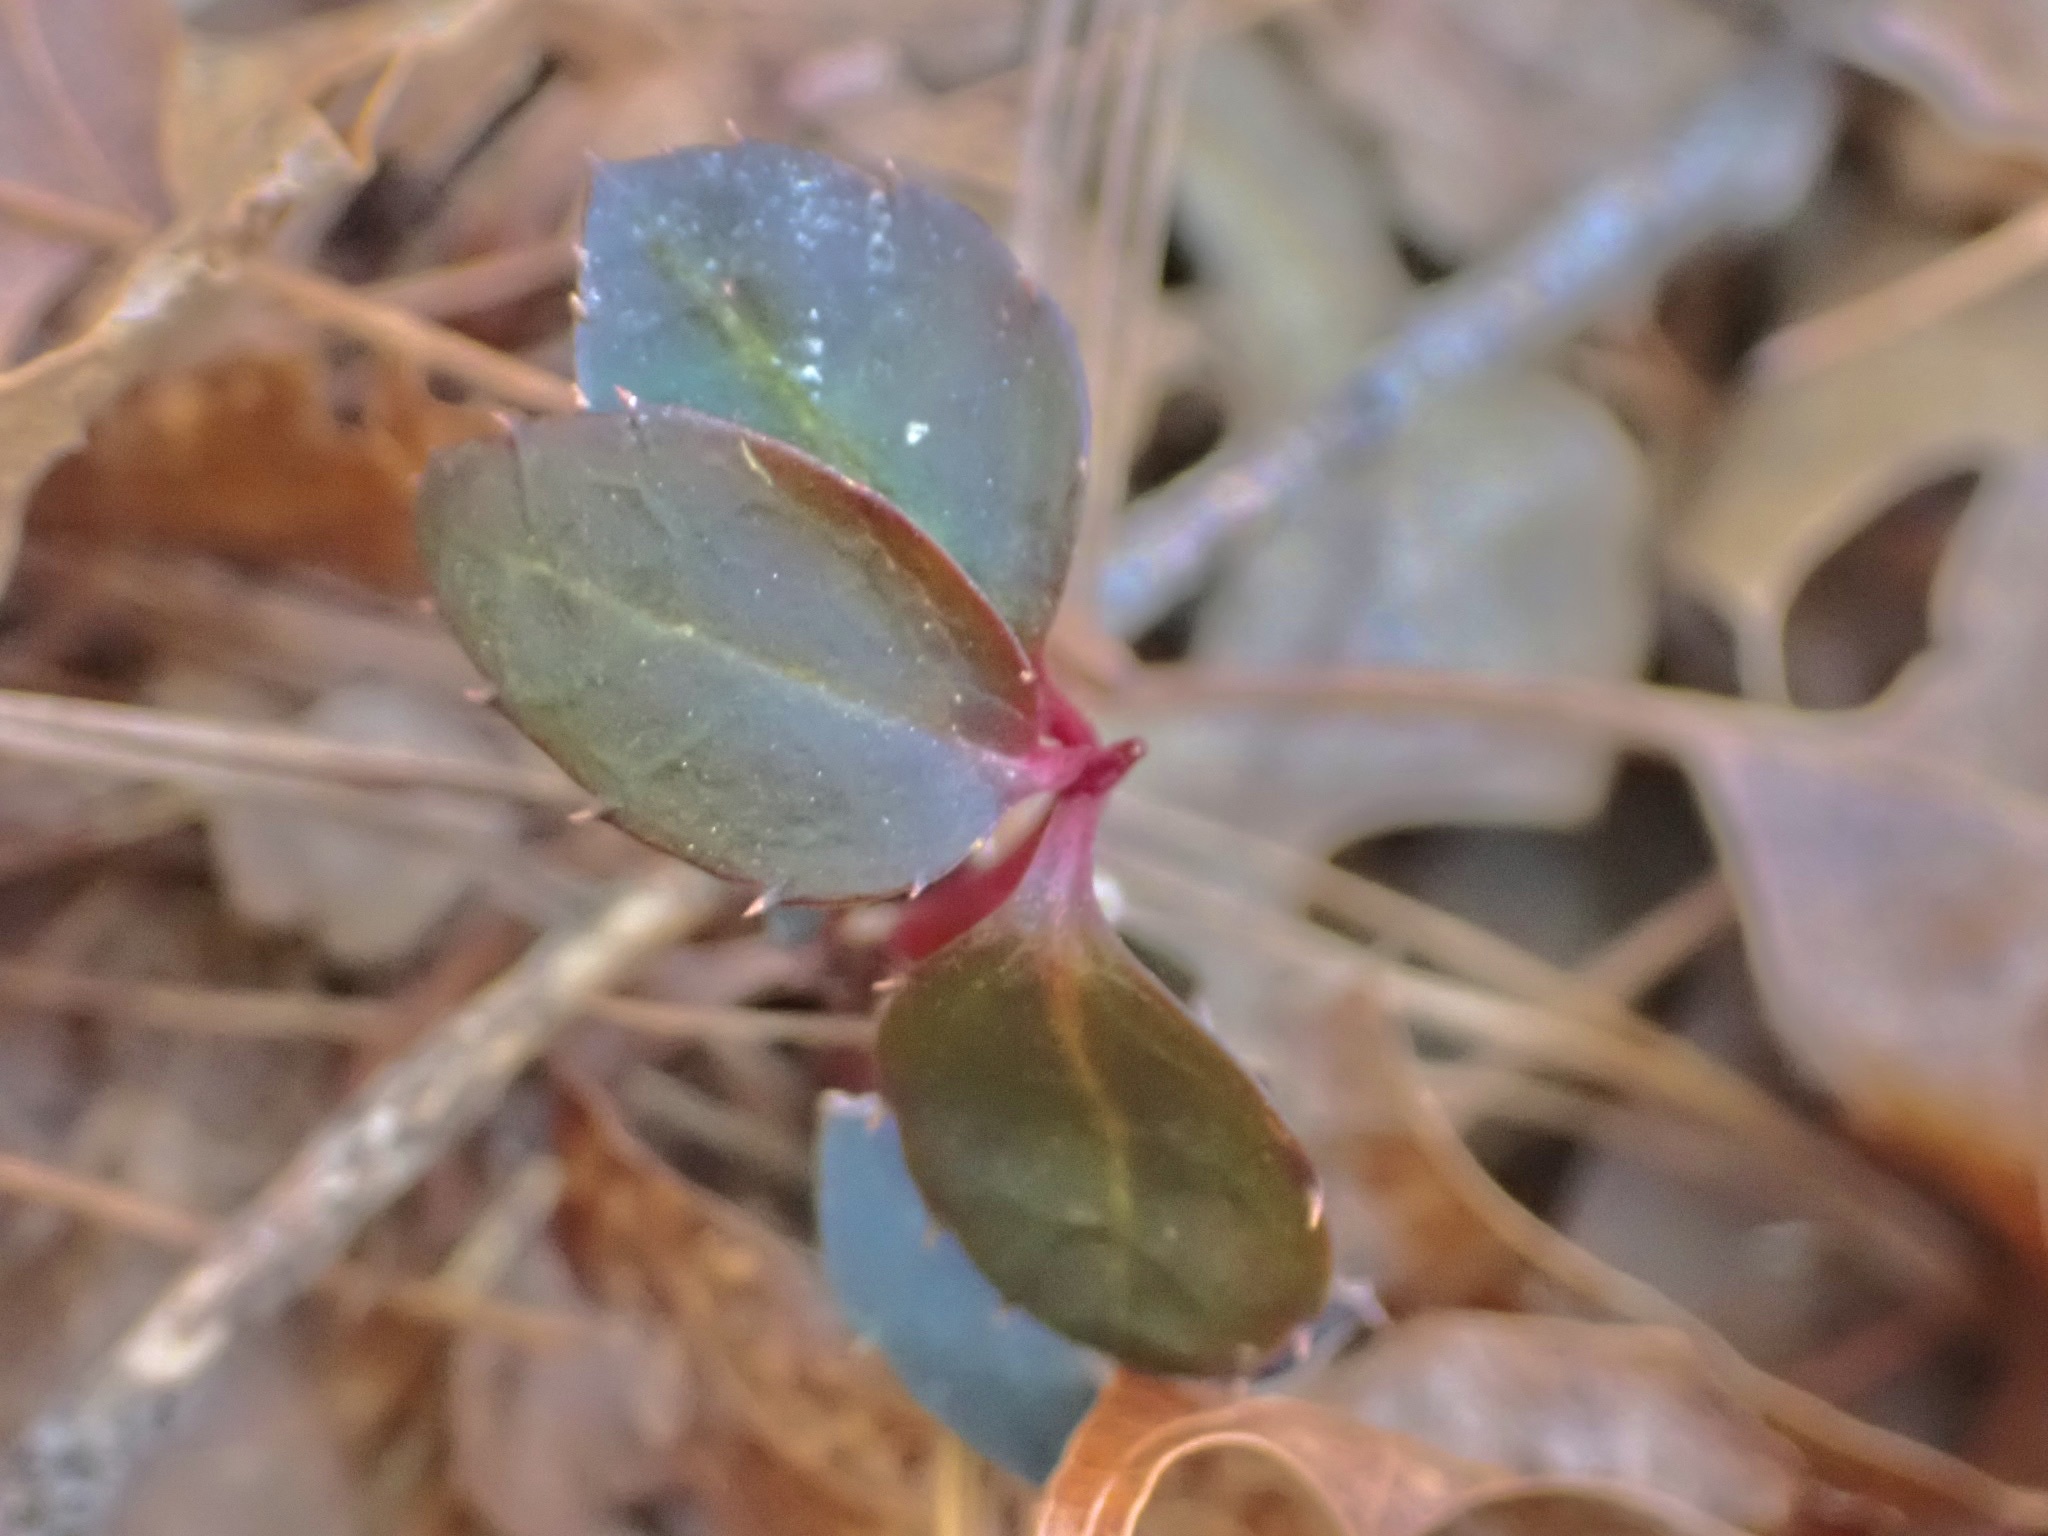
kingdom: Plantae
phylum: Tracheophyta
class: Magnoliopsida
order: Ericales
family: Ericaceae
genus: Chimaphila
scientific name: Chimaphila maculata
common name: Spotted pipsissewa
